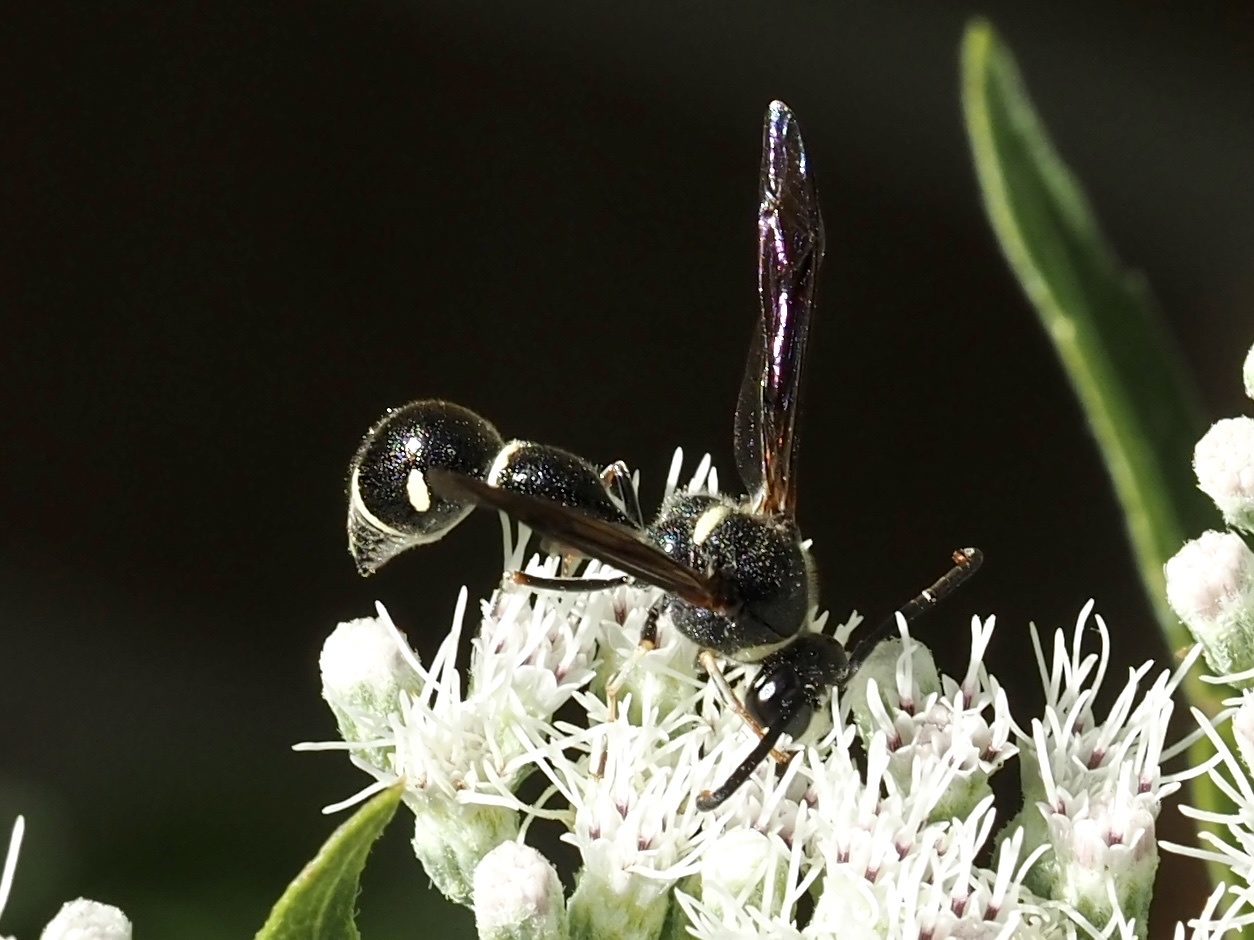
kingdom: Animalia
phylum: Arthropoda
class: Insecta
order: Hymenoptera
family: Vespidae
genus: Eumenes
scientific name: Eumenes fraternus
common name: Fraternal potter wasp
